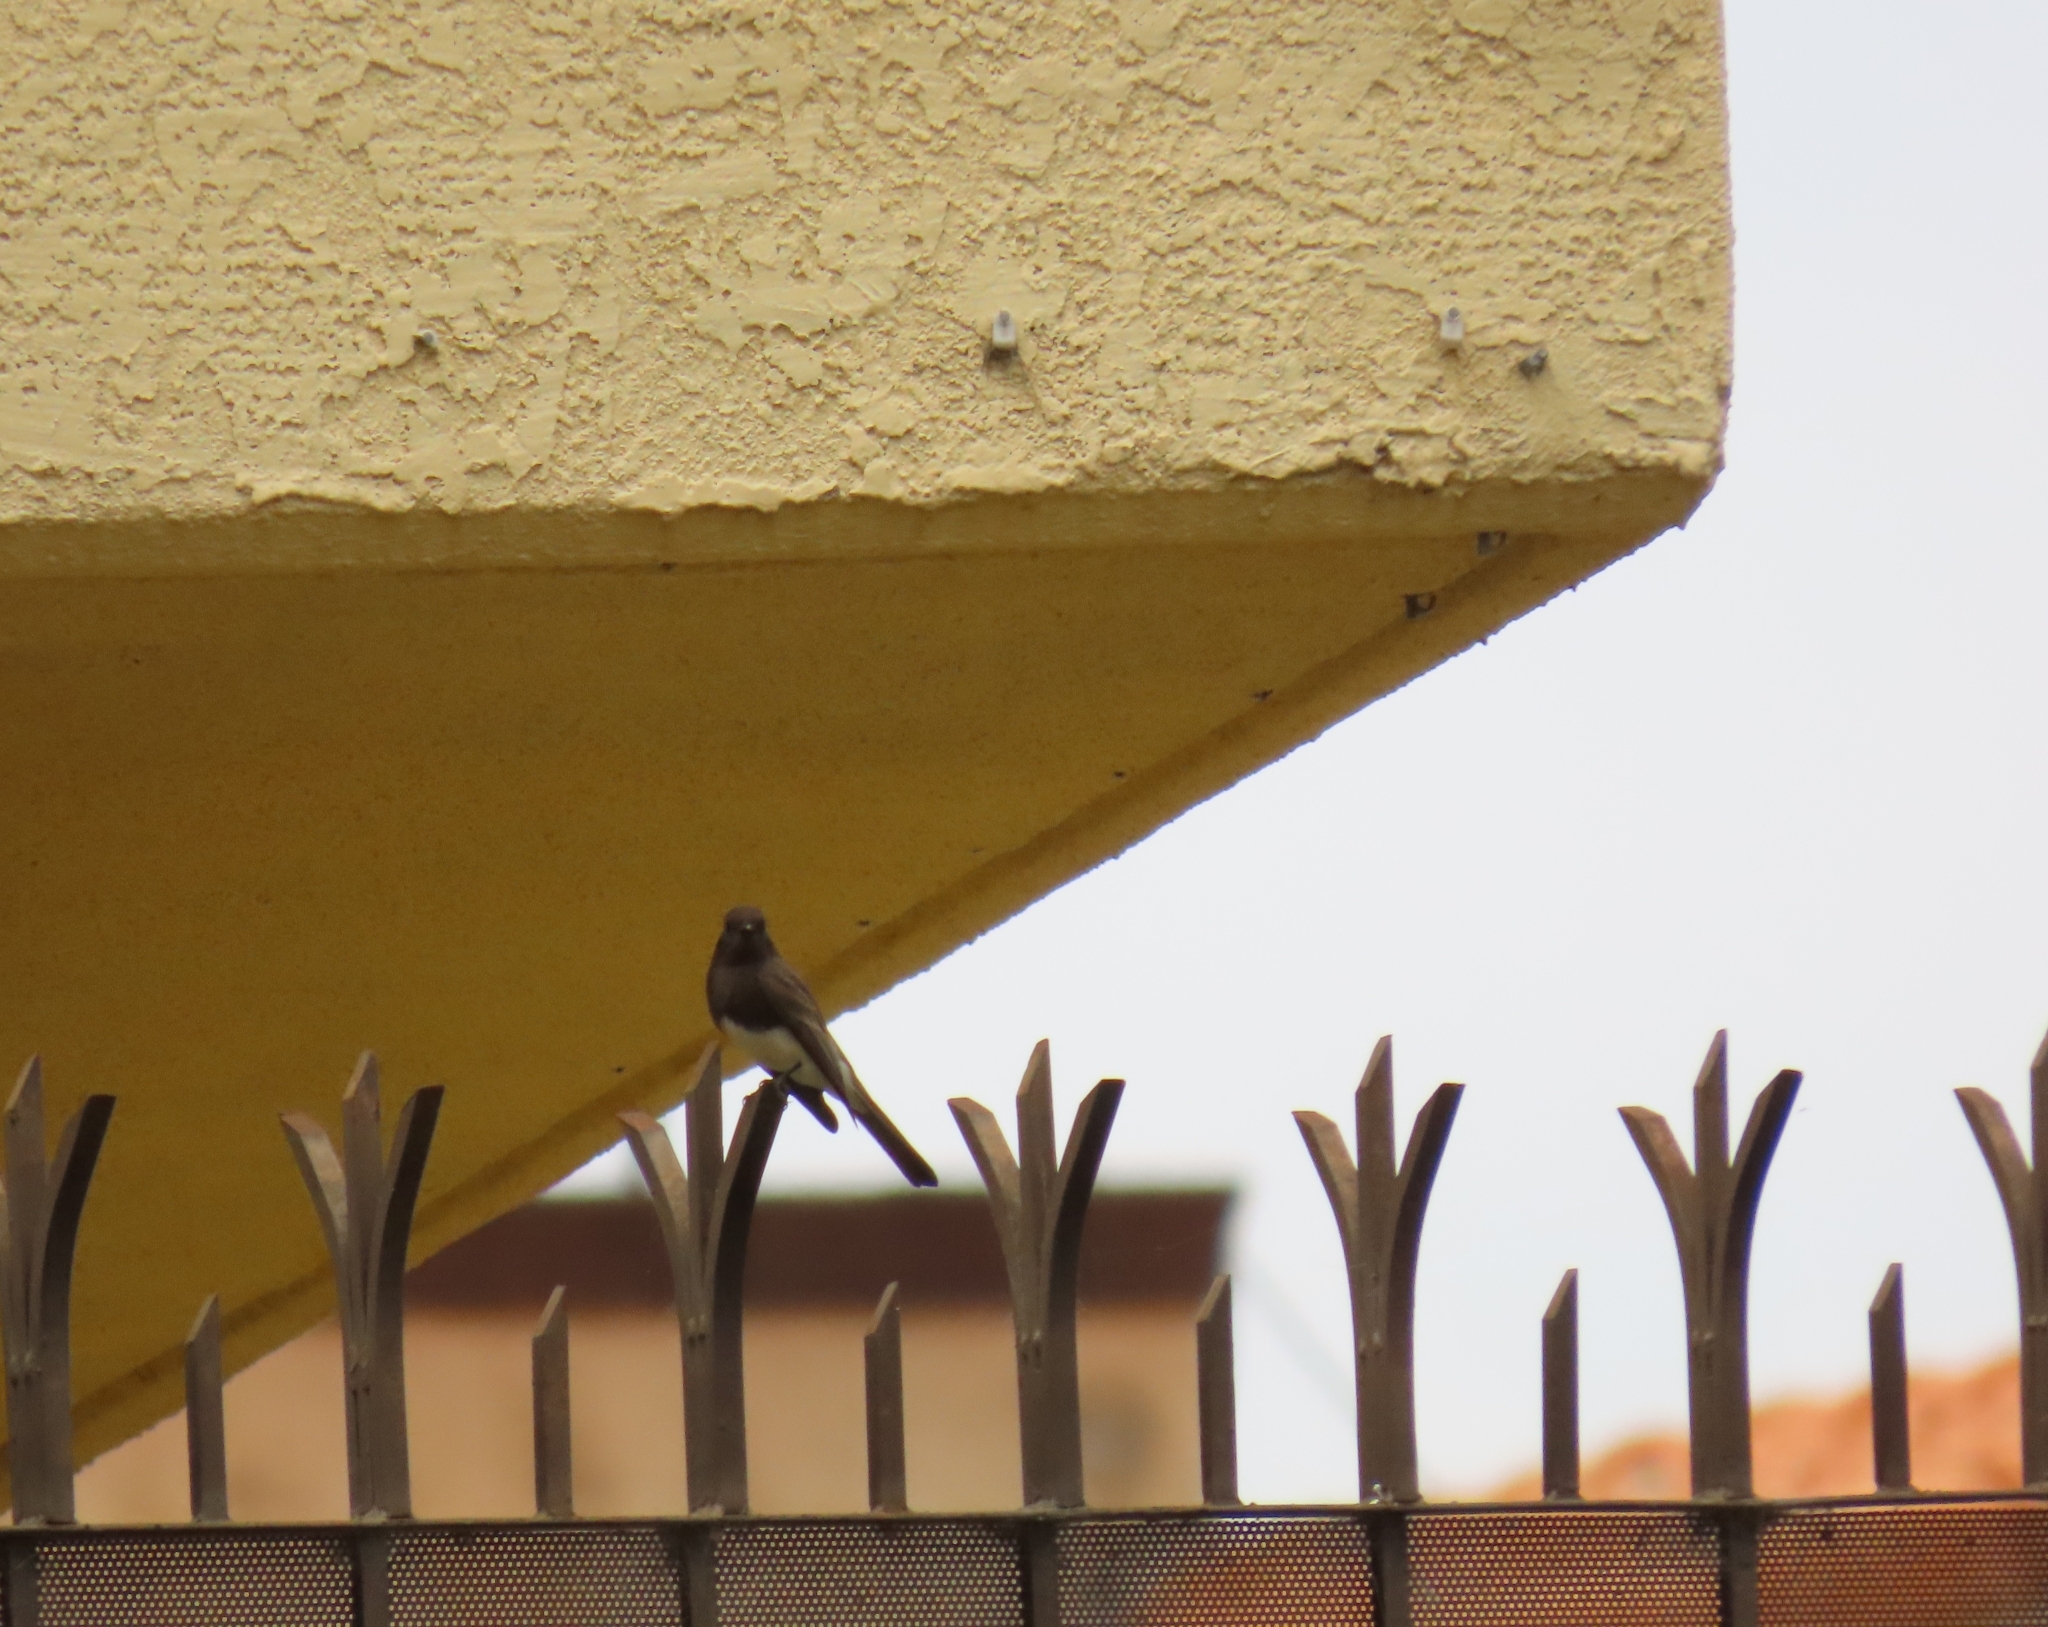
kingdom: Animalia
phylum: Chordata
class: Aves
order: Passeriformes
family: Tyrannidae
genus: Sayornis
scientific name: Sayornis nigricans
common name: Black phoebe
